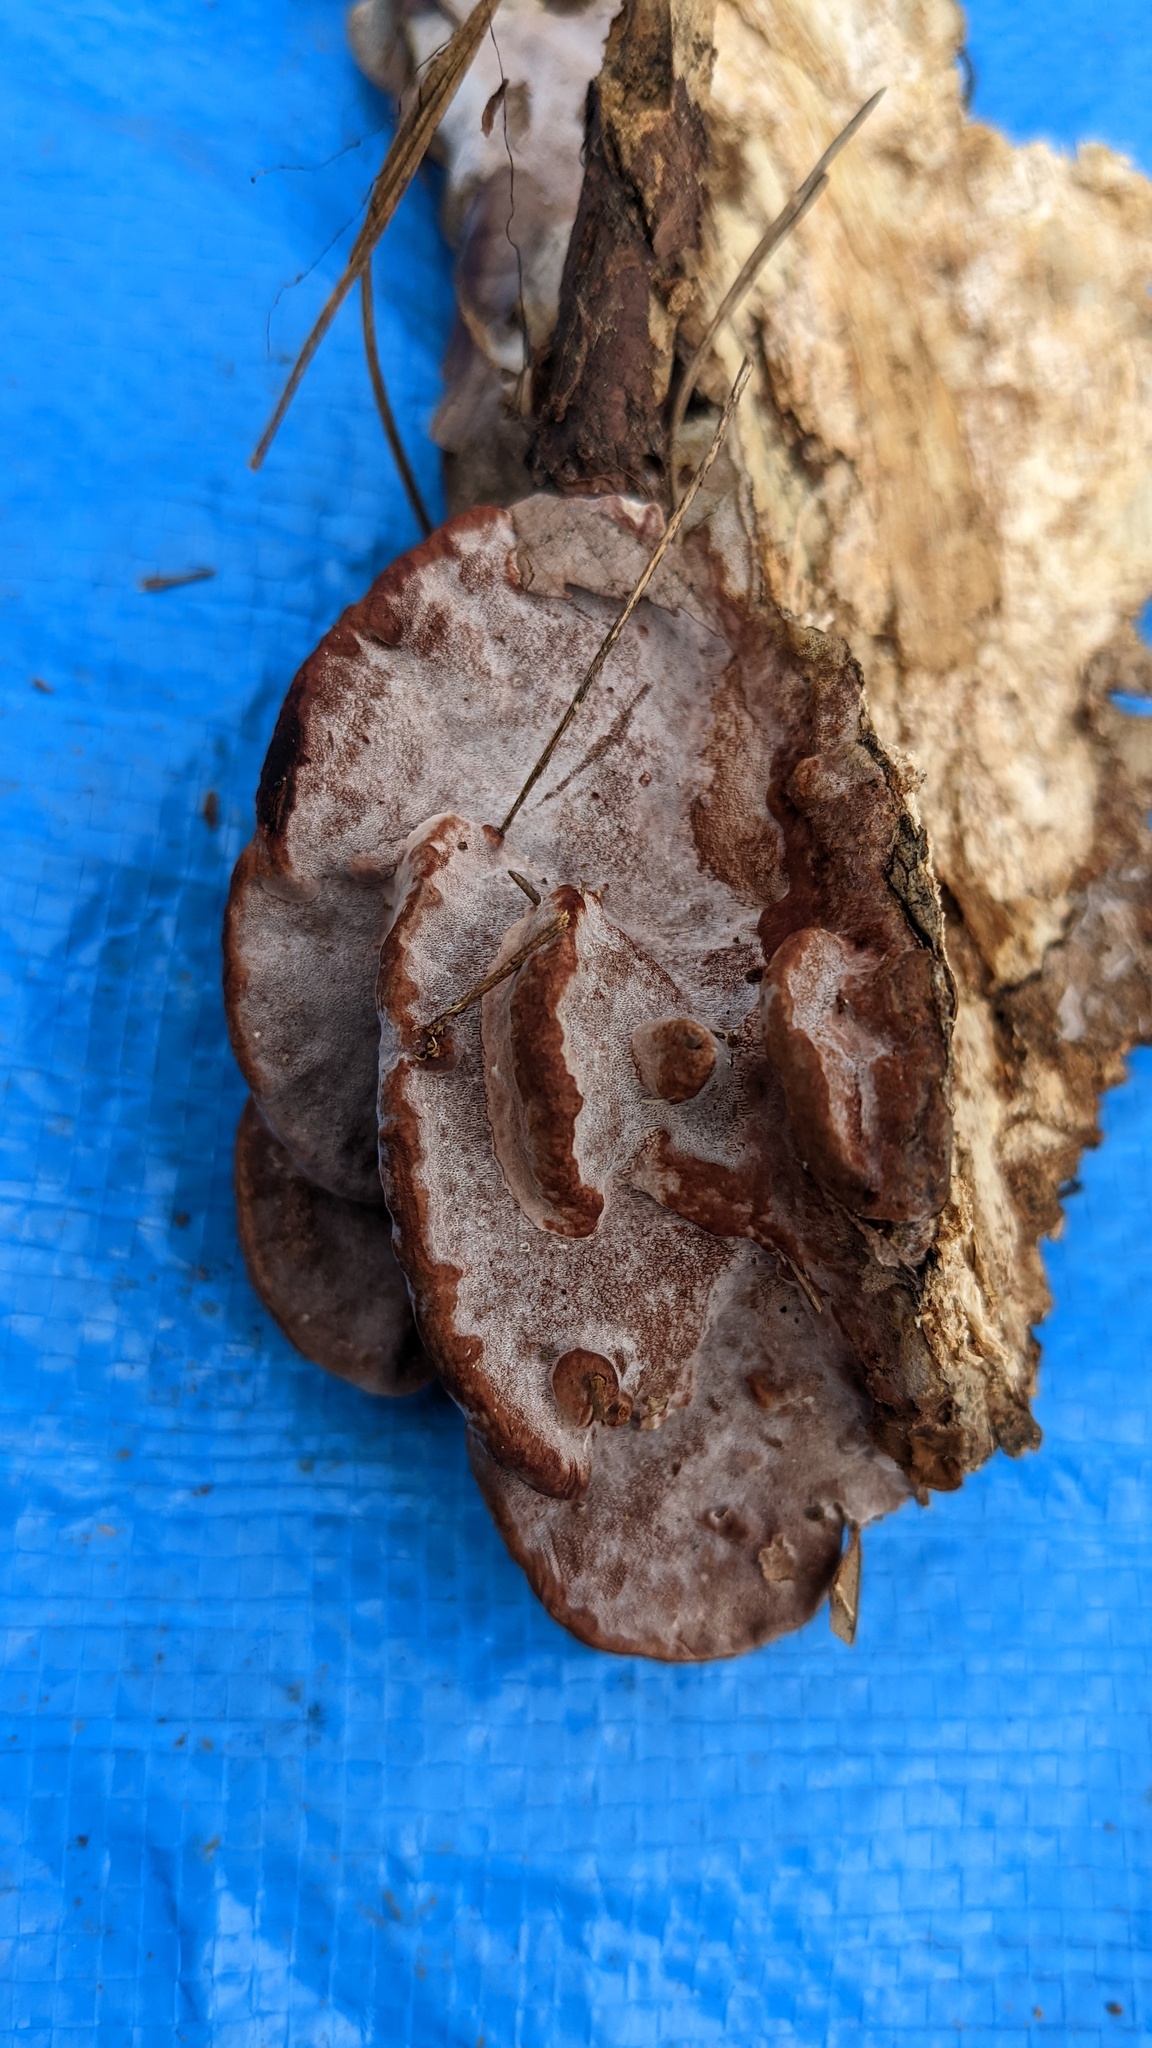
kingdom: Fungi
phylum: Basidiomycota
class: Agaricomycetes
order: Polyporales
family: Polyporaceae
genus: Abundisporus
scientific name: Abundisporus pubertatis
